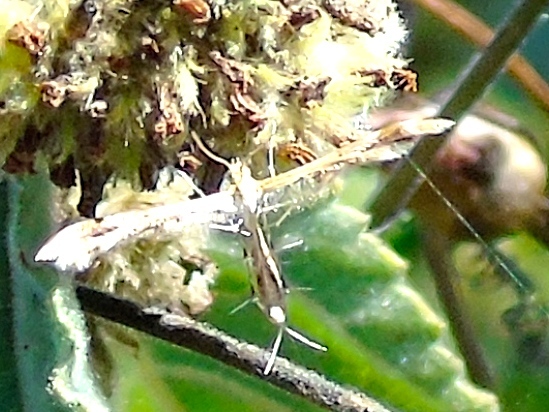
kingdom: Animalia
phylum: Arthropoda
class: Insecta
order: Lepidoptera
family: Pterophoridae
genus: Anstenoptilia
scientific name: Anstenoptilia marmarodactyla
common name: Moth
